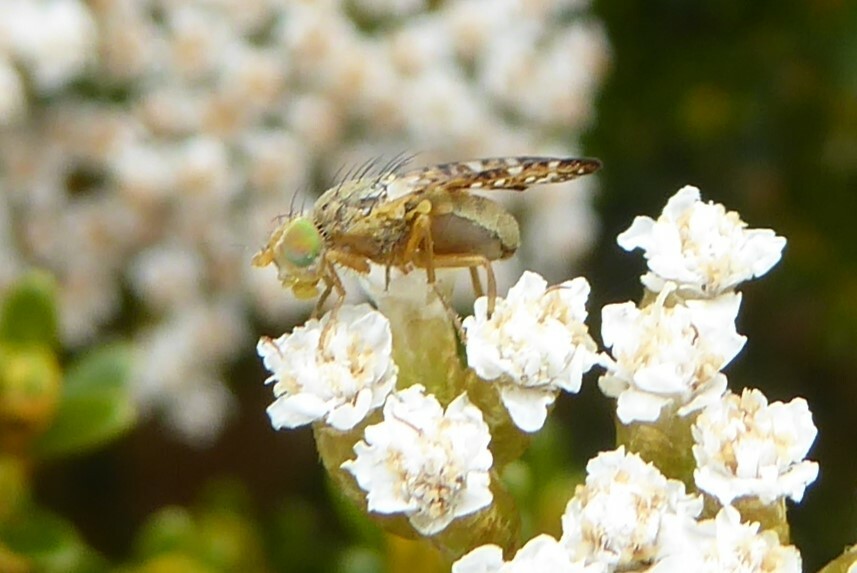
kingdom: Animalia
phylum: Arthropoda
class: Insecta
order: Diptera
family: Tephritidae
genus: Austrotephritis
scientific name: Austrotephritis
